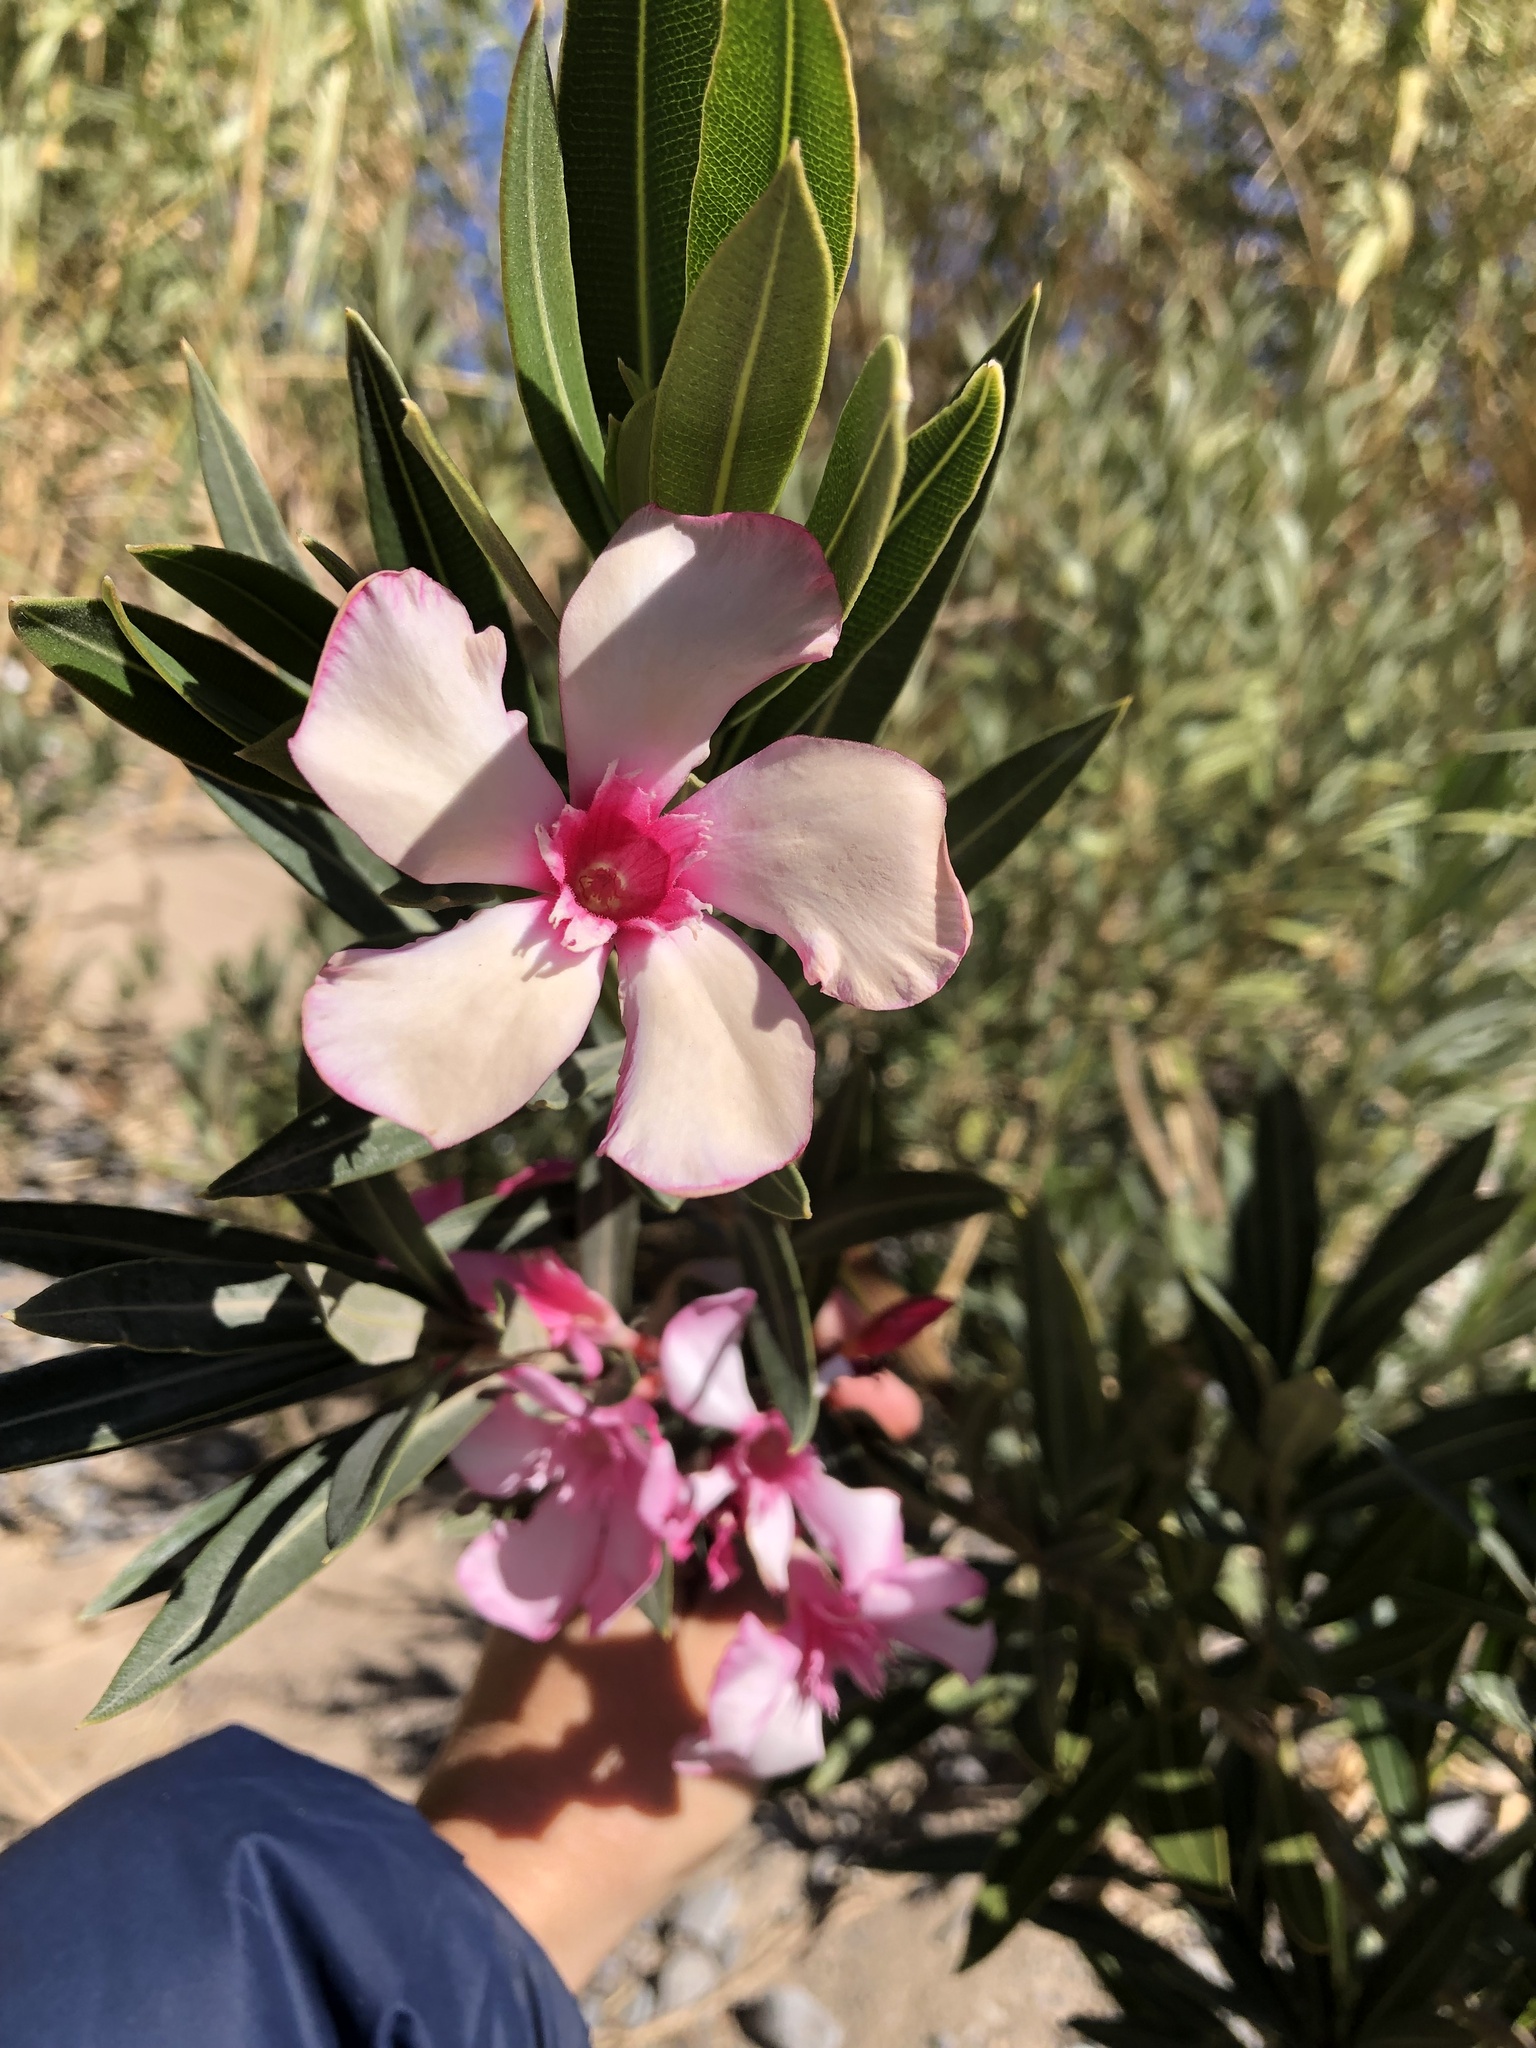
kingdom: Plantae
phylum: Tracheophyta
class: Magnoliopsida
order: Gentianales
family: Apocynaceae
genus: Nerium
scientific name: Nerium oleander
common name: Oleander
